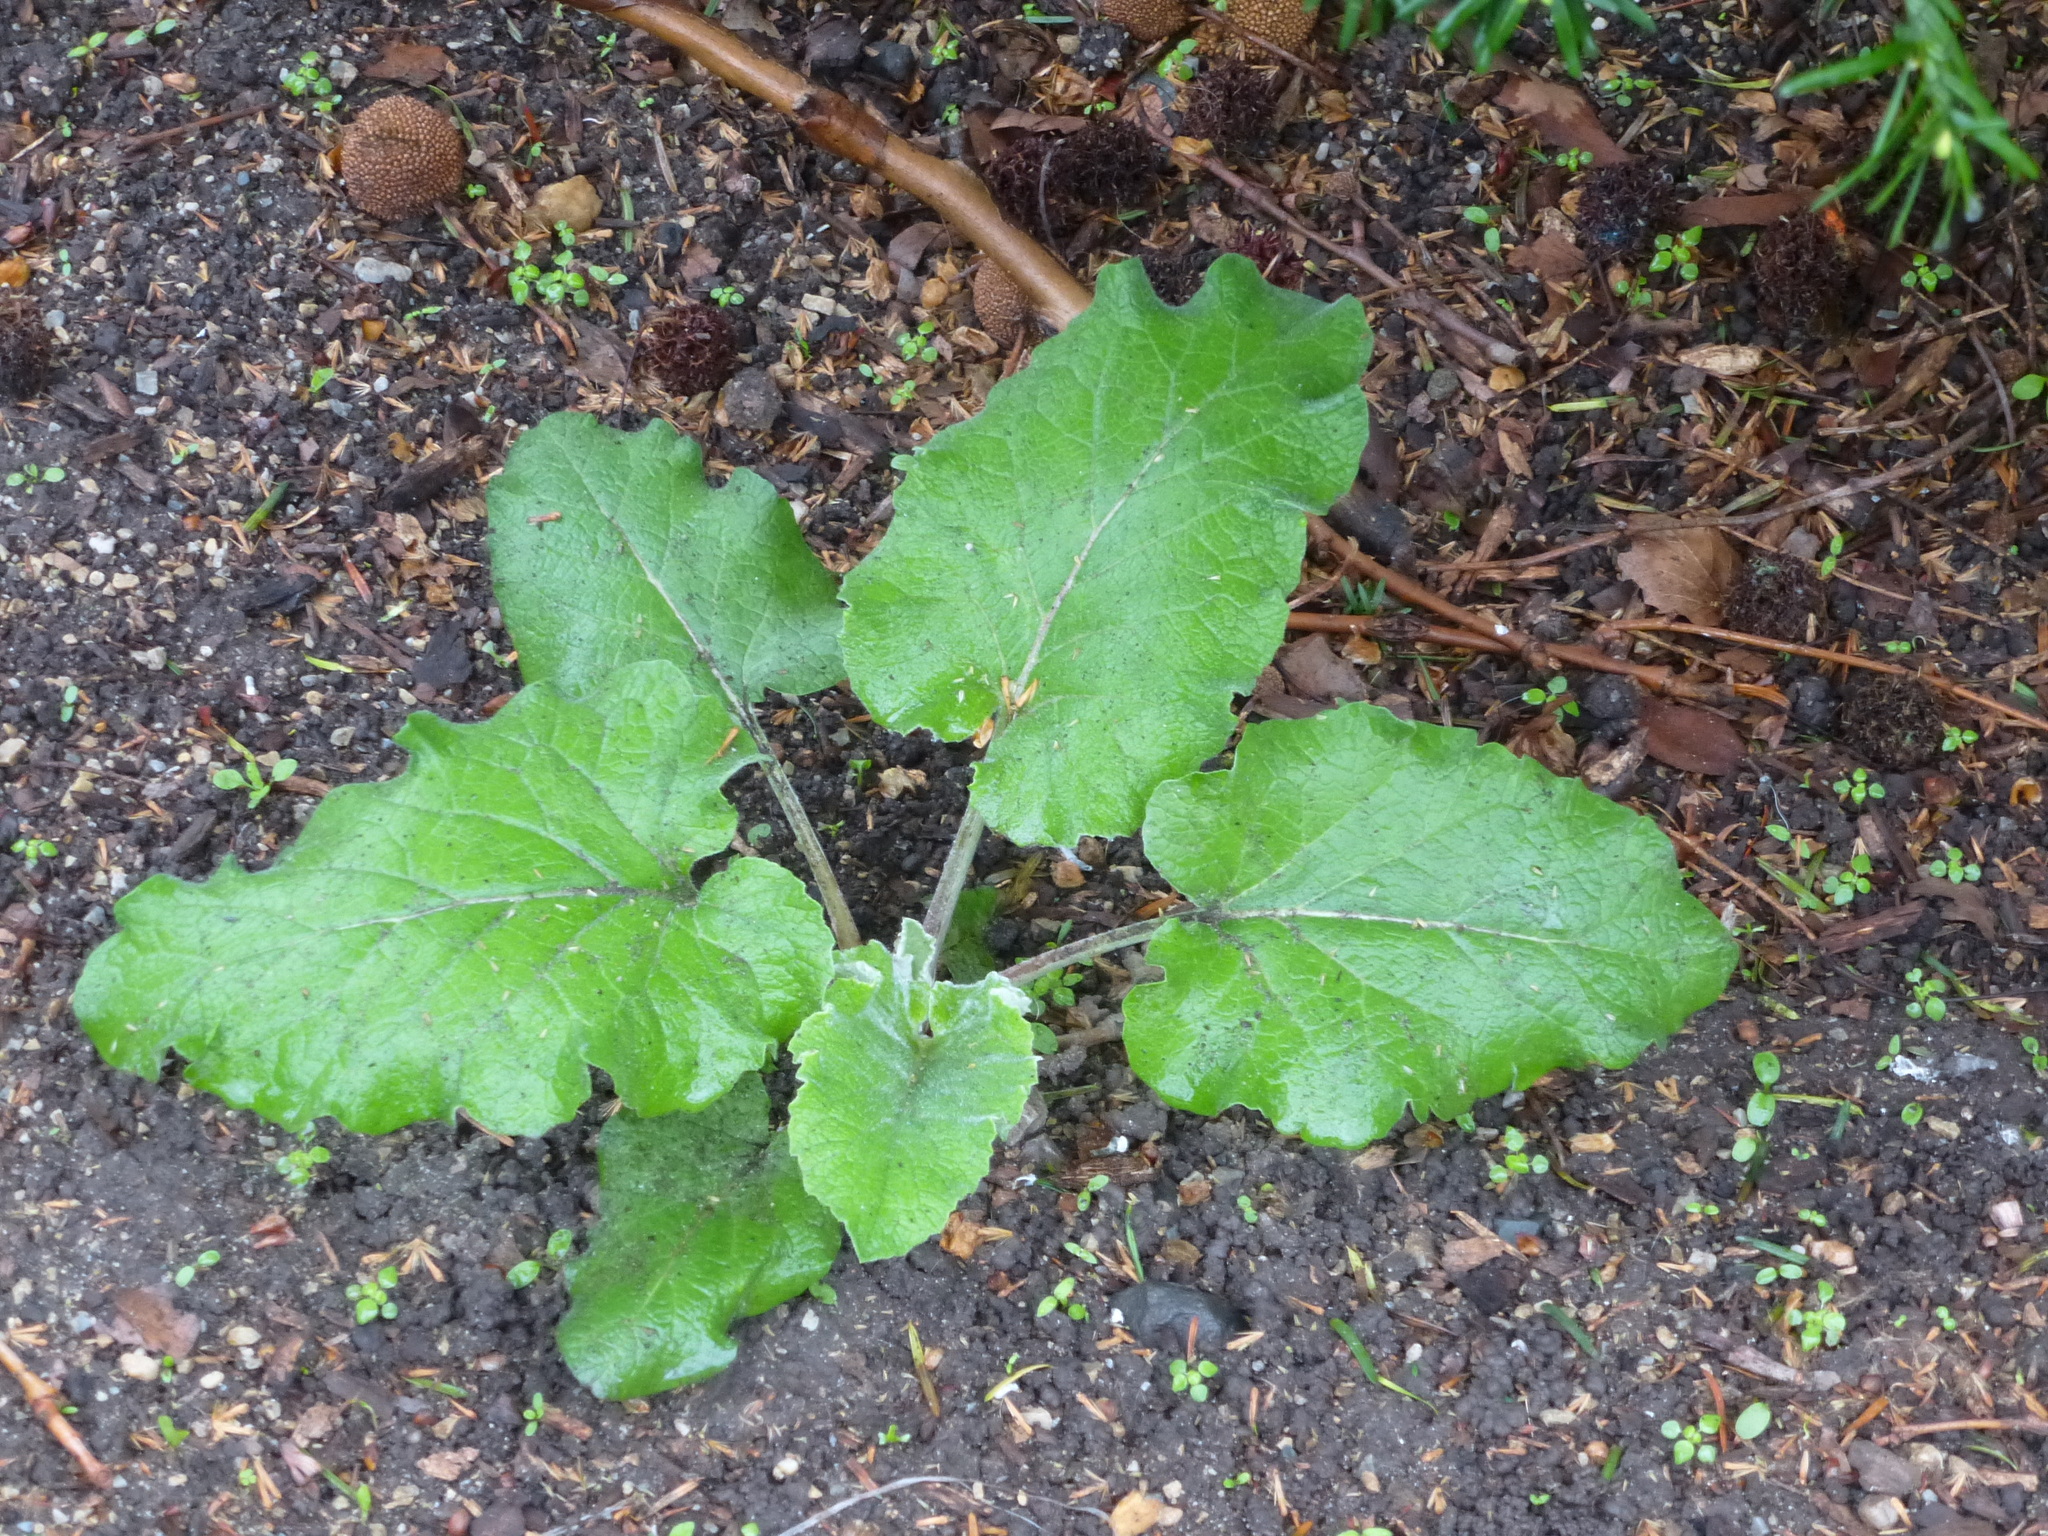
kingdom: Plantae
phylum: Tracheophyta
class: Magnoliopsida
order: Asterales
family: Asteraceae
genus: Arctium
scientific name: Arctium
